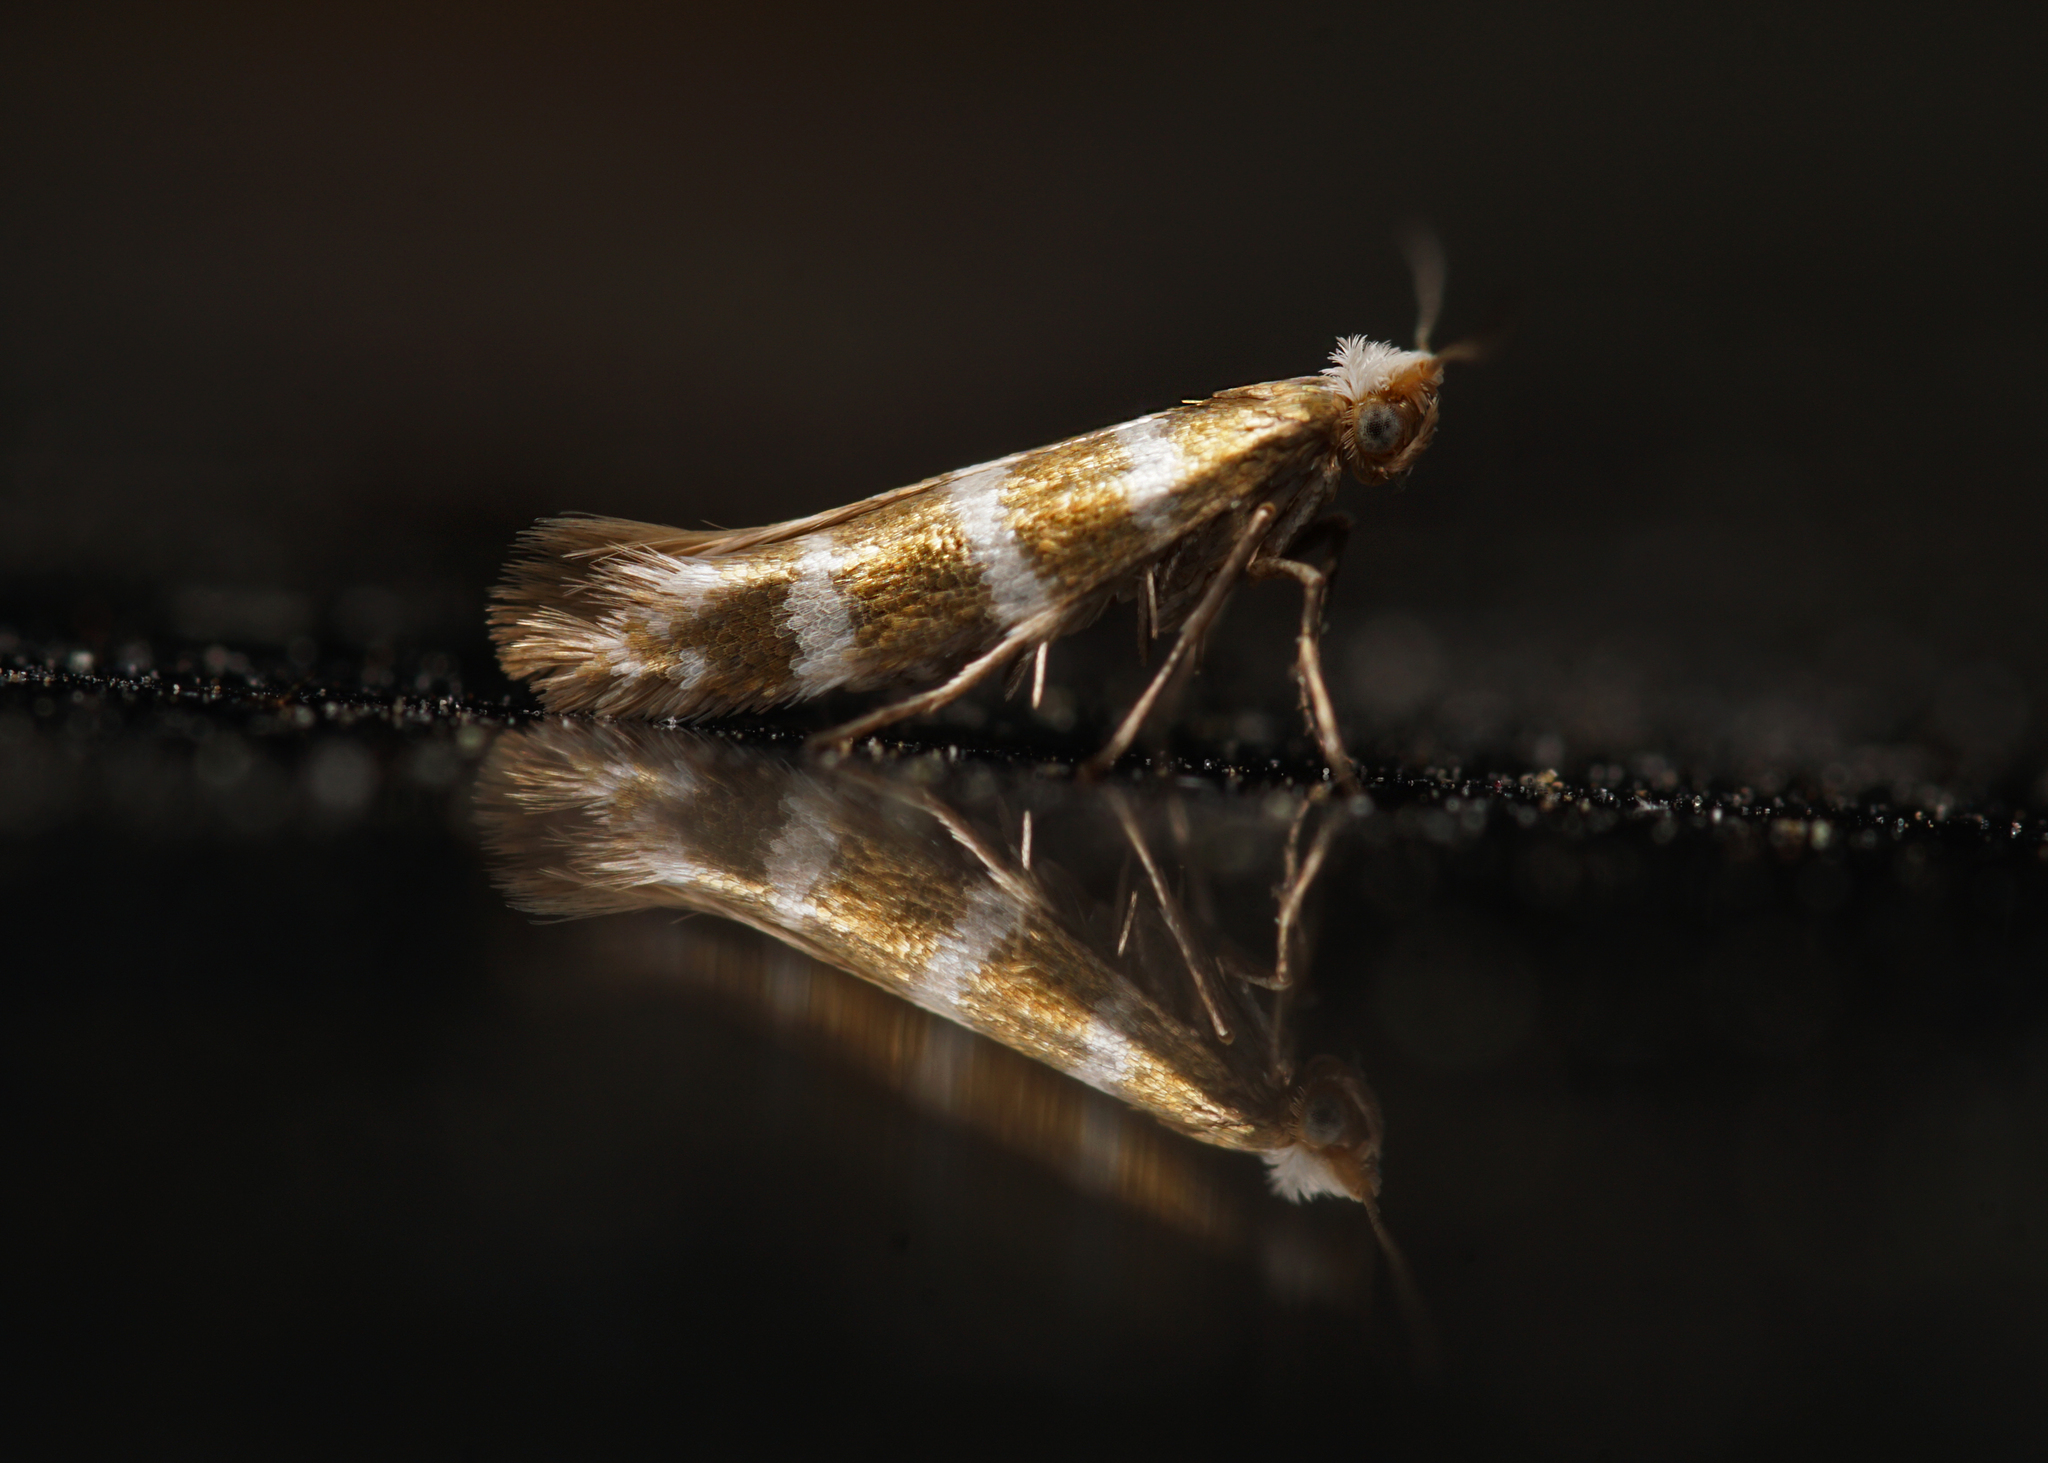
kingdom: Animalia
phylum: Arthropoda
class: Insecta
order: Lepidoptera
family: Argyresthiidae
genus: Argyresthia
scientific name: Argyresthia trifasciata
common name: Triple-barred argent
